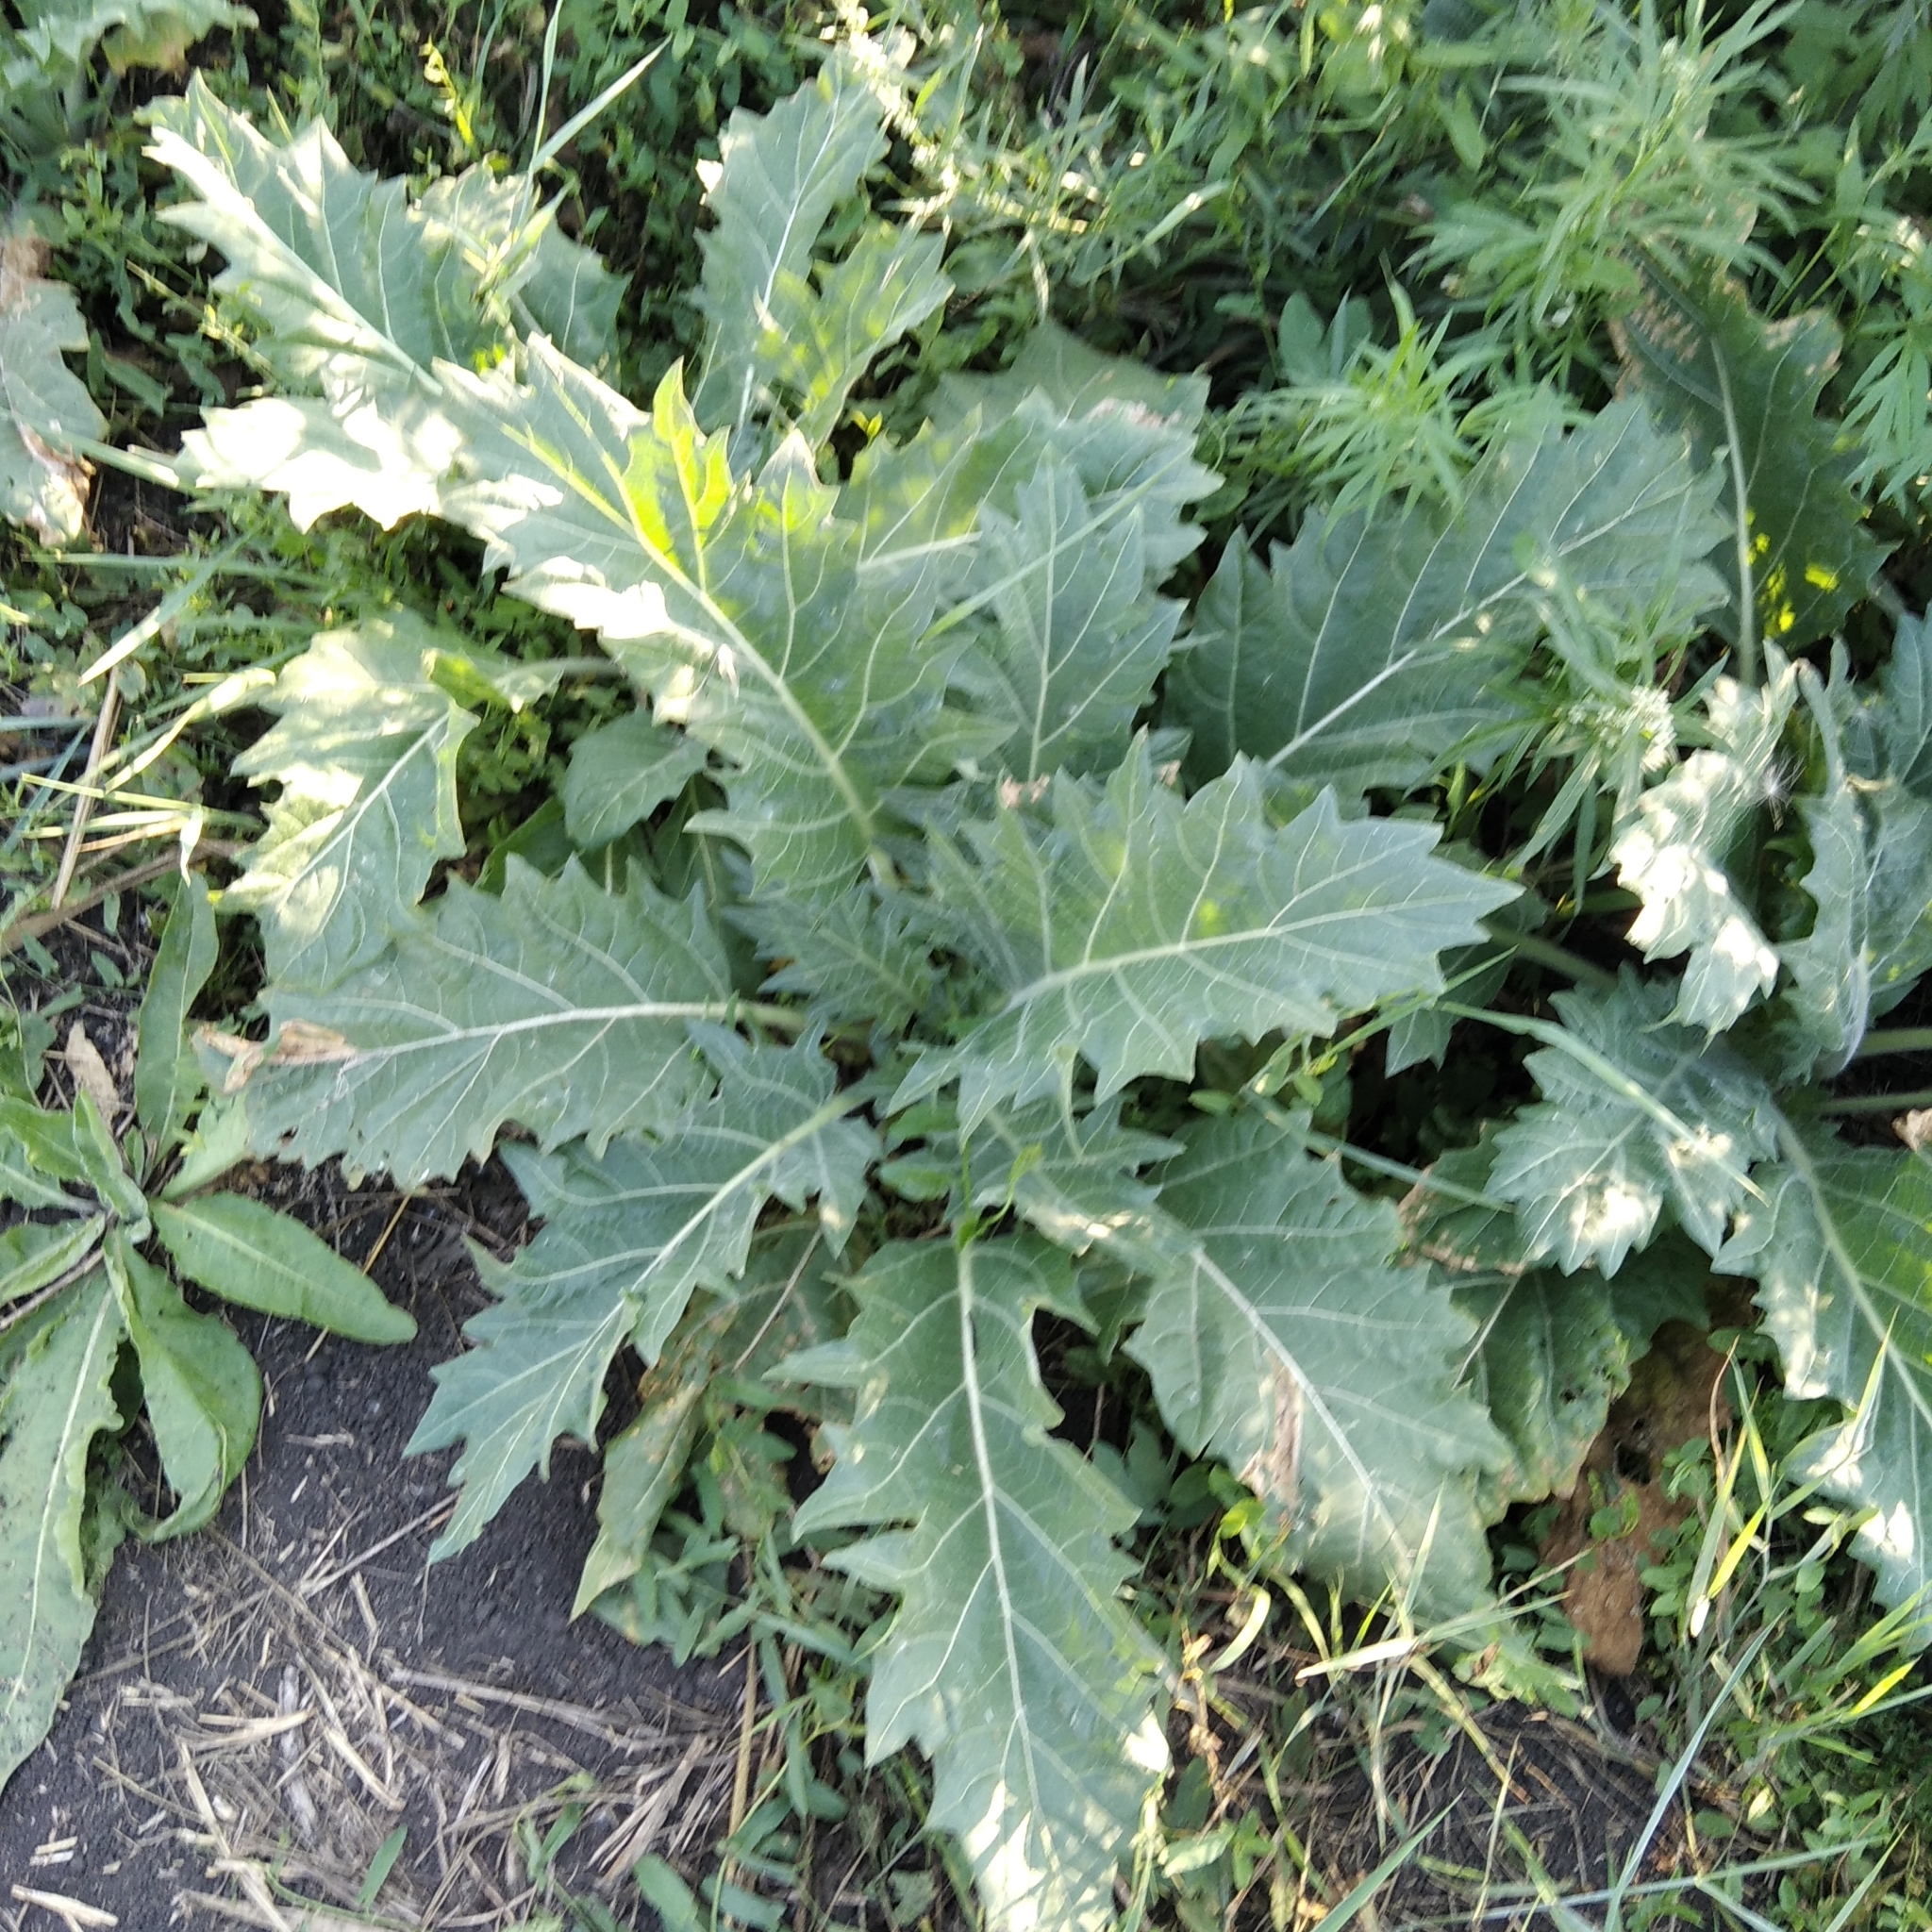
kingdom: Plantae
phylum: Tracheophyta
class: Magnoliopsida
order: Solanales
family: Solanaceae
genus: Hyoscyamus
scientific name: Hyoscyamus niger
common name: Henbane
